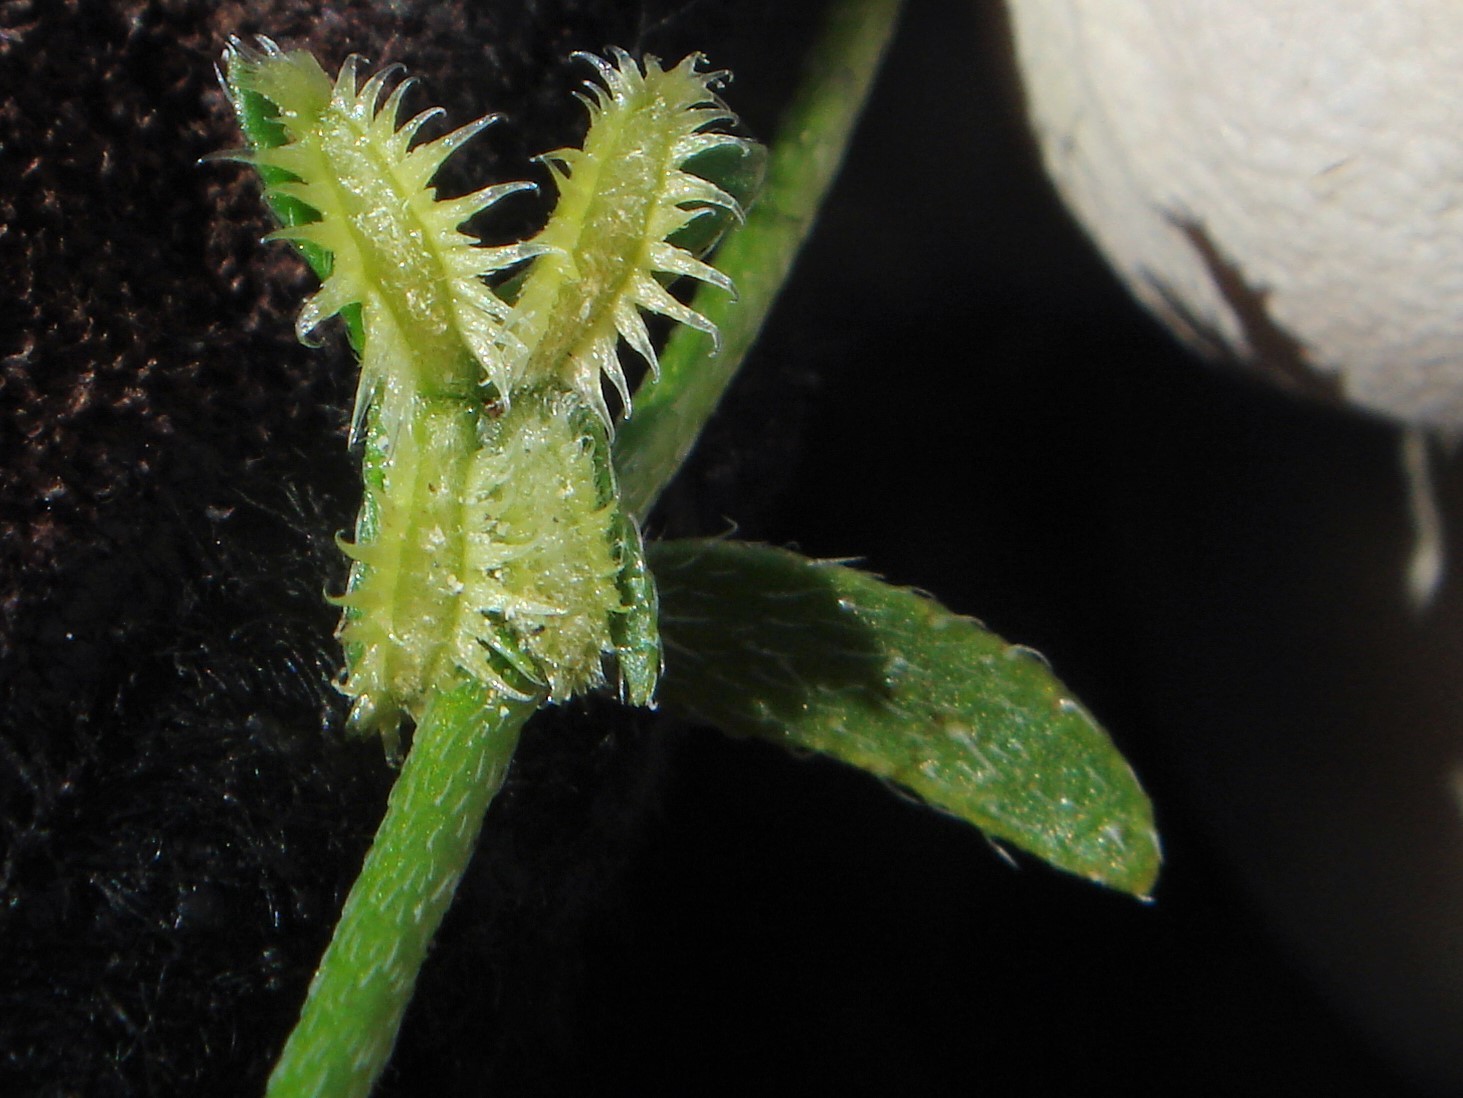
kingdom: Plantae
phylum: Tracheophyta
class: Magnoliopsida
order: Boraginales
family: Boraginaceae
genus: Pectocarya
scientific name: Pectocarya recurvata
